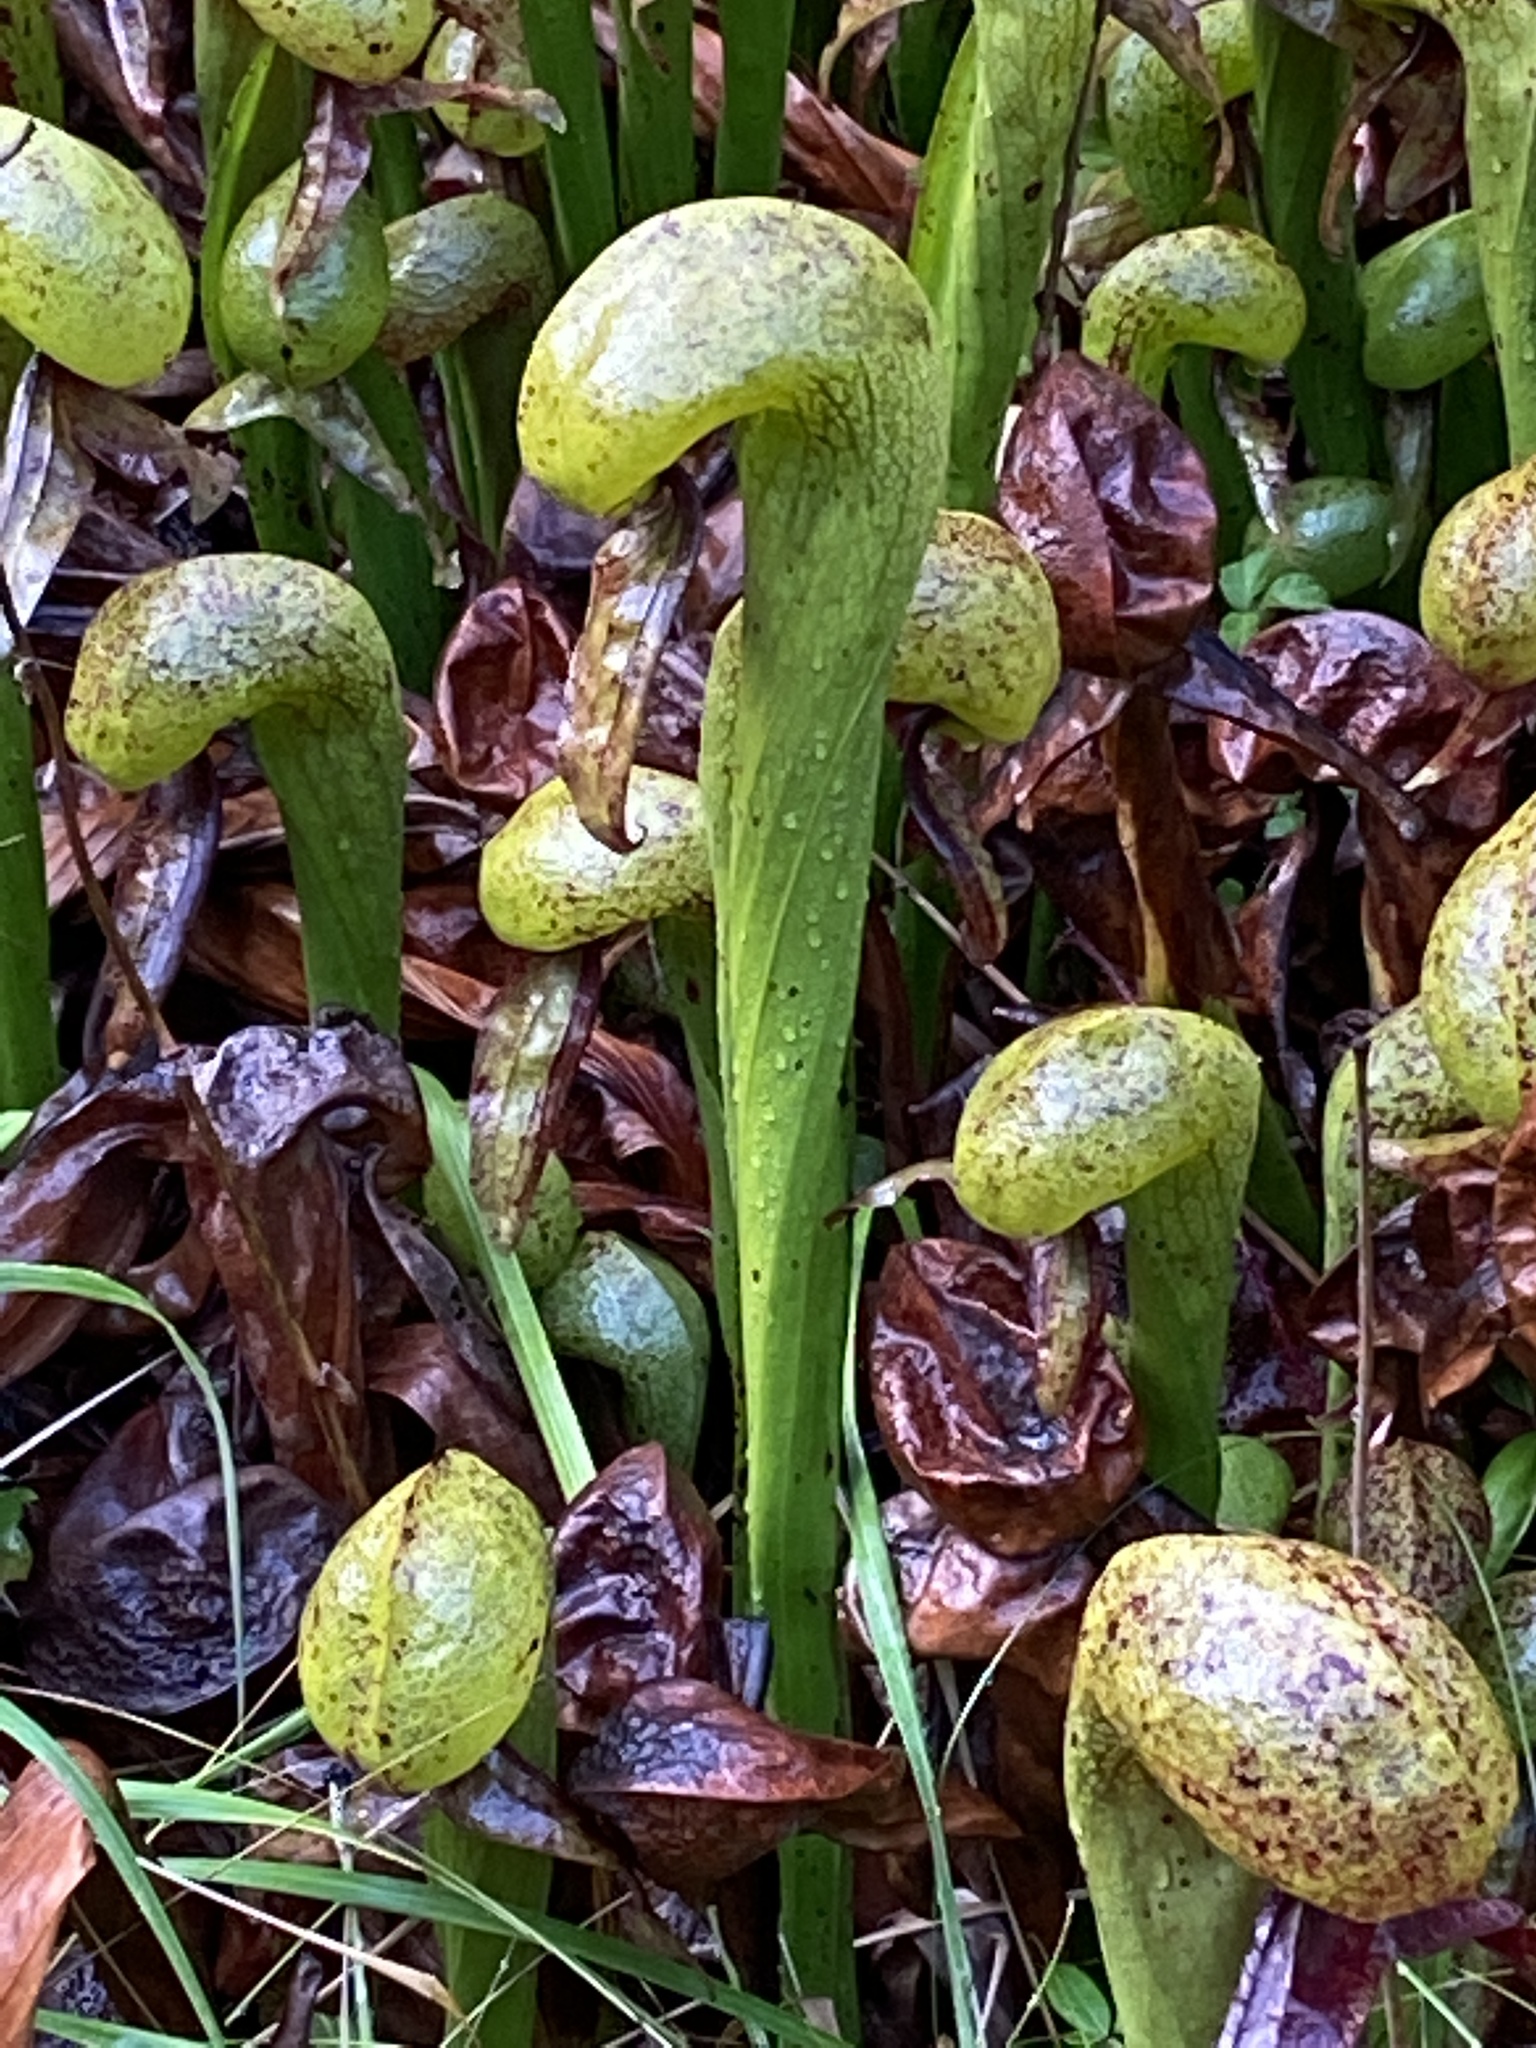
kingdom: Plantae
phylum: Tracheophyta
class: Magnoliopsida
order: Ericales
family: Sarraceniaceae
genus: Darlingtonia
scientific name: Darlingtonia californica
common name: California pitcher plant
